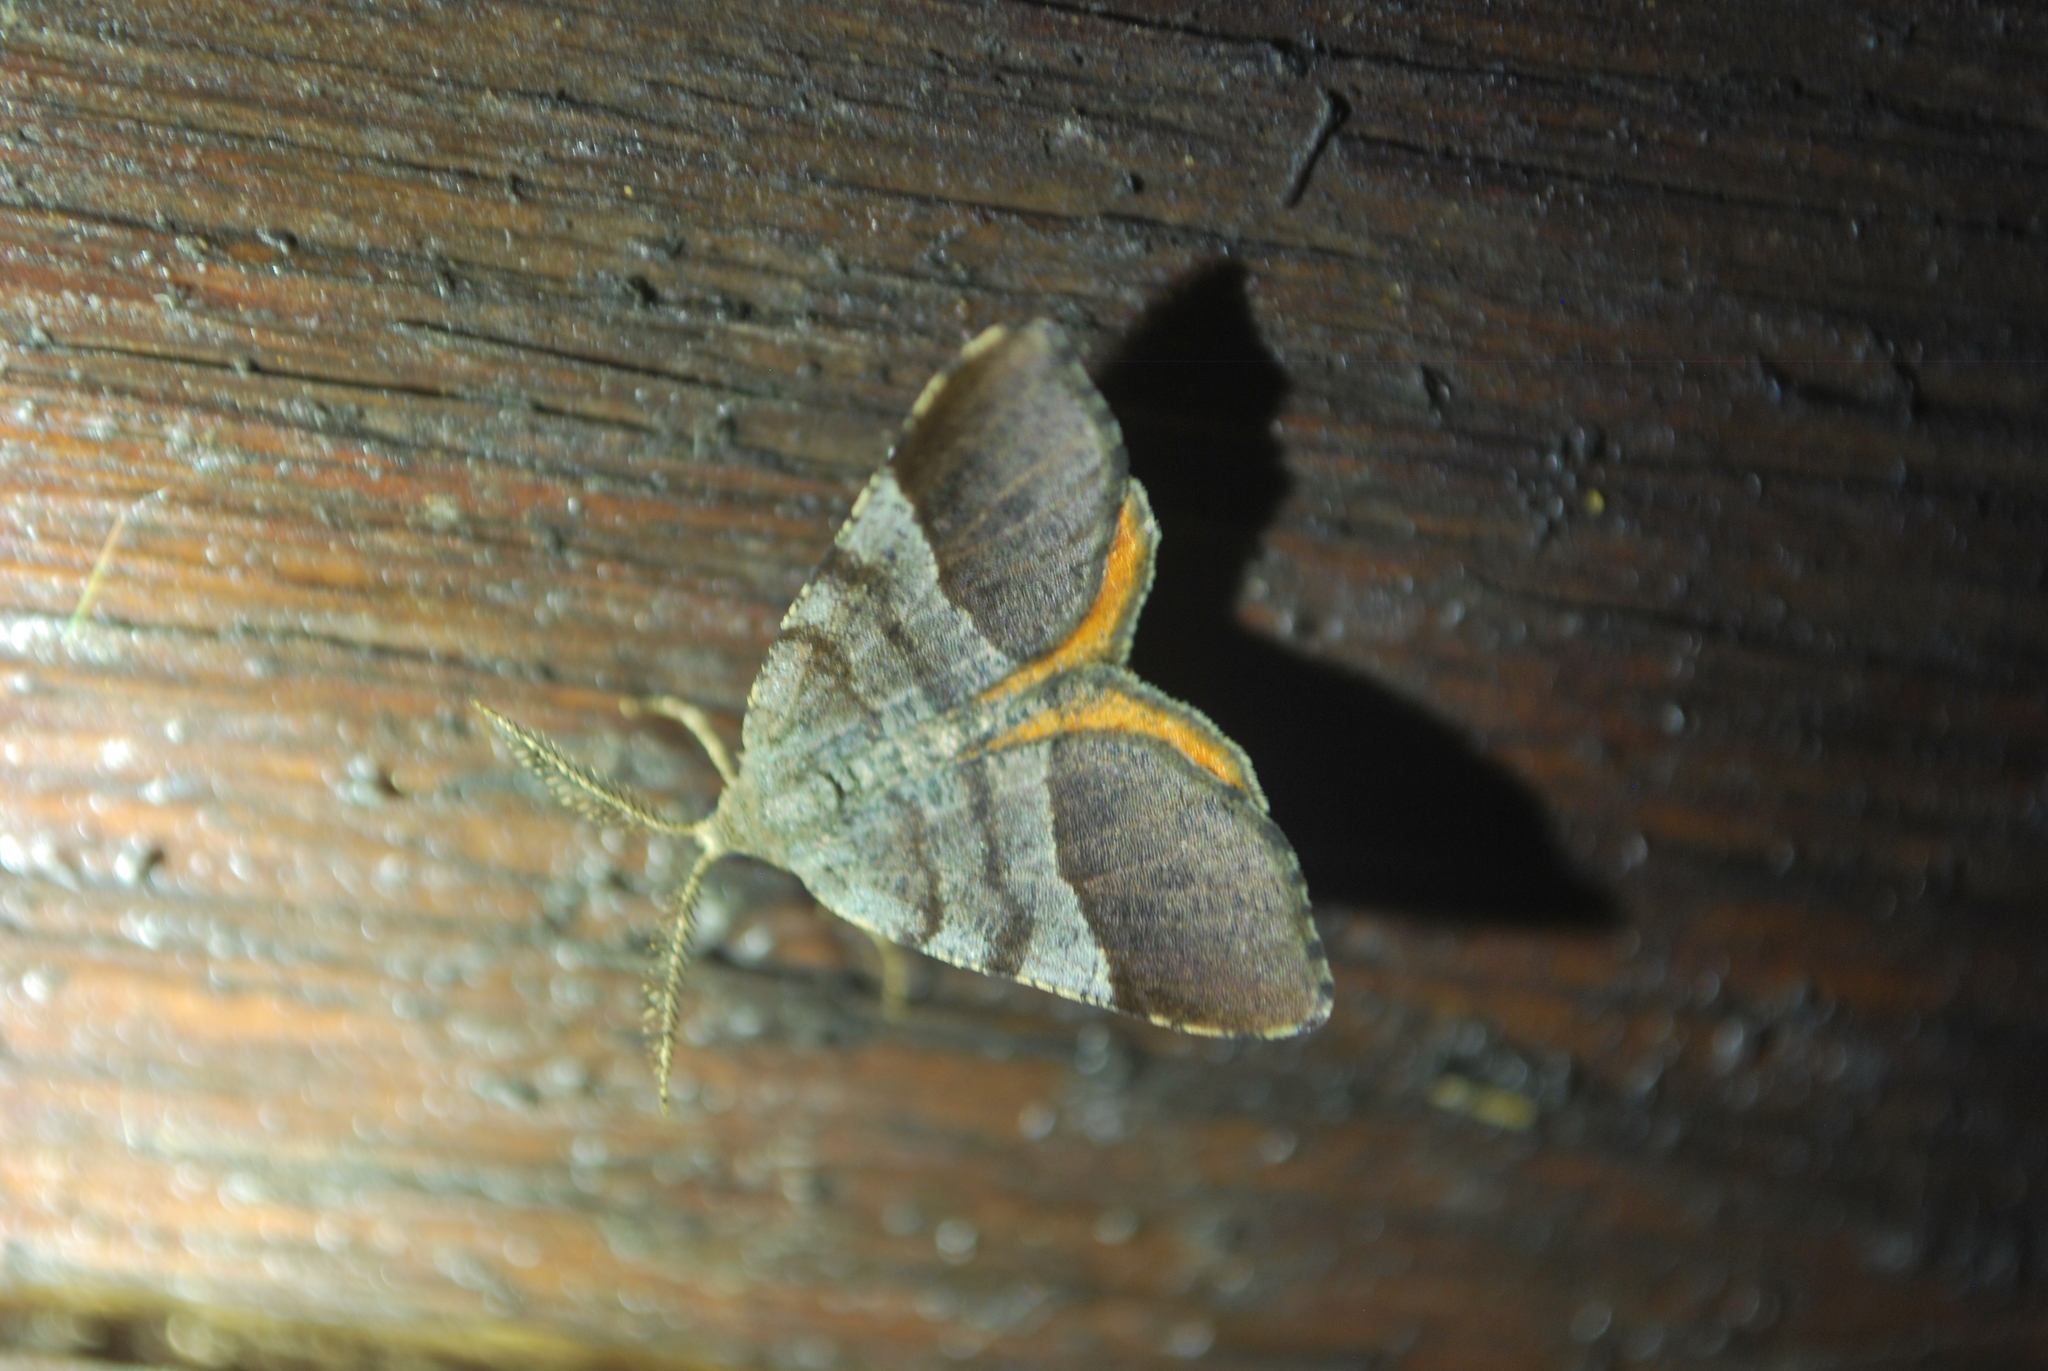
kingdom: Animalia
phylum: Arthropoda
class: Insecta
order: Lepidoptera
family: Geometridae
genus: Mellilla
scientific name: Mellilla xanthometata
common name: Orange wing moth
